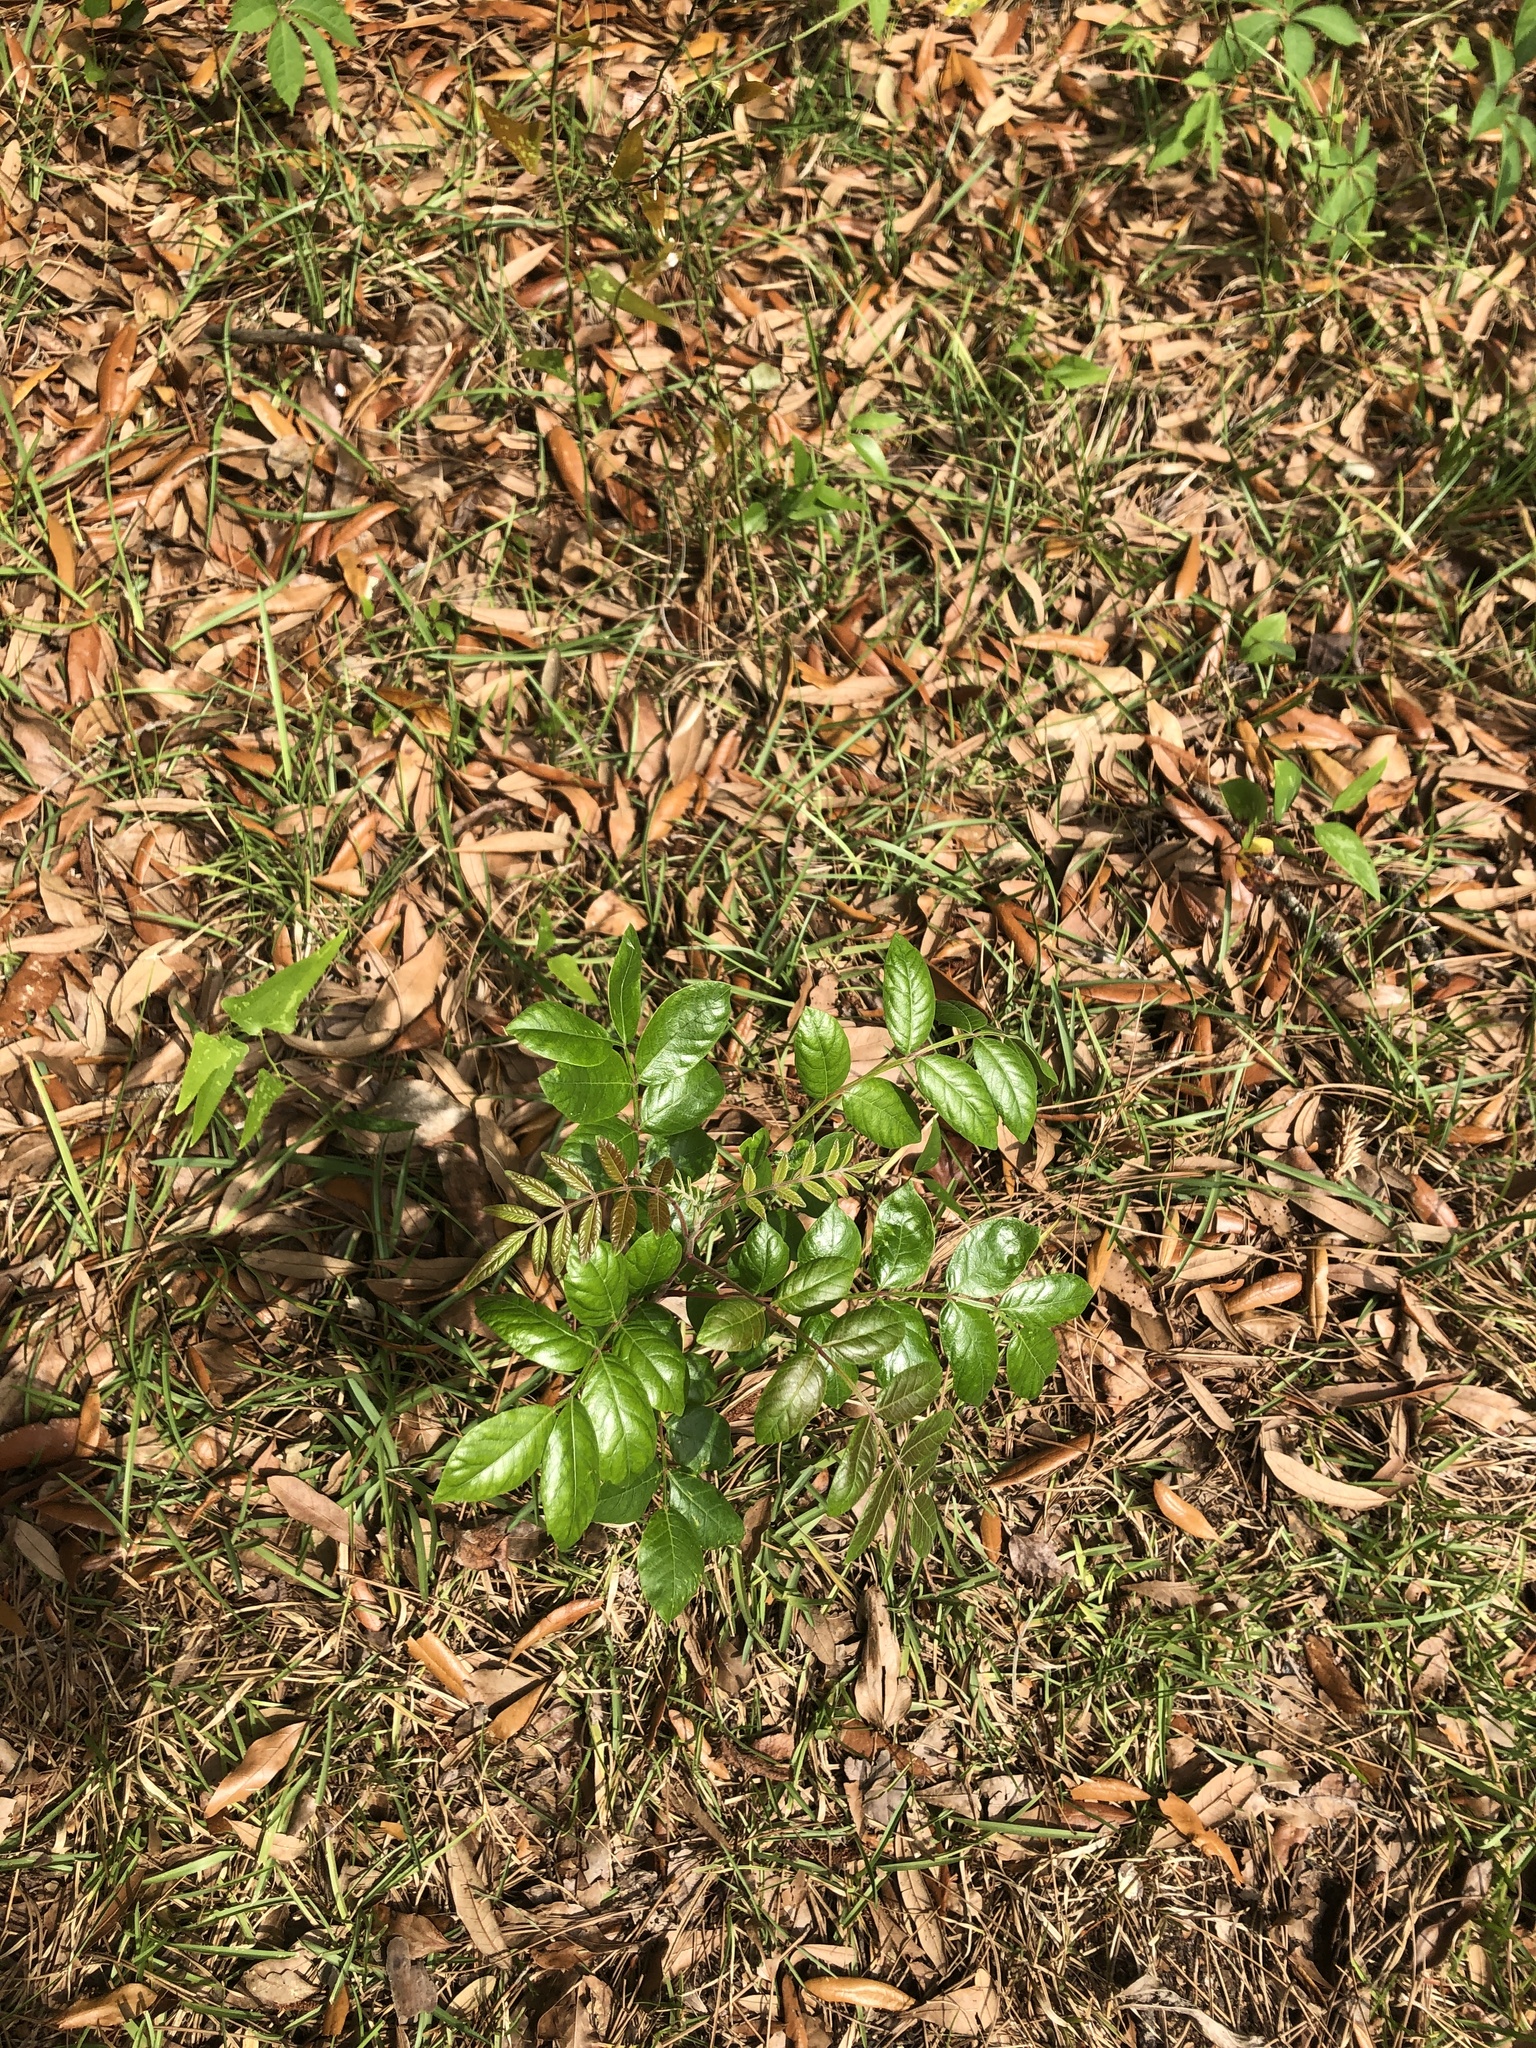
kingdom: Plantae
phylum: Tracheophyta
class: Magnoliopsida
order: Sapindales
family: Anacardiaceae
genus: Rhus
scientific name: Rhus copallina
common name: Shining sumac
